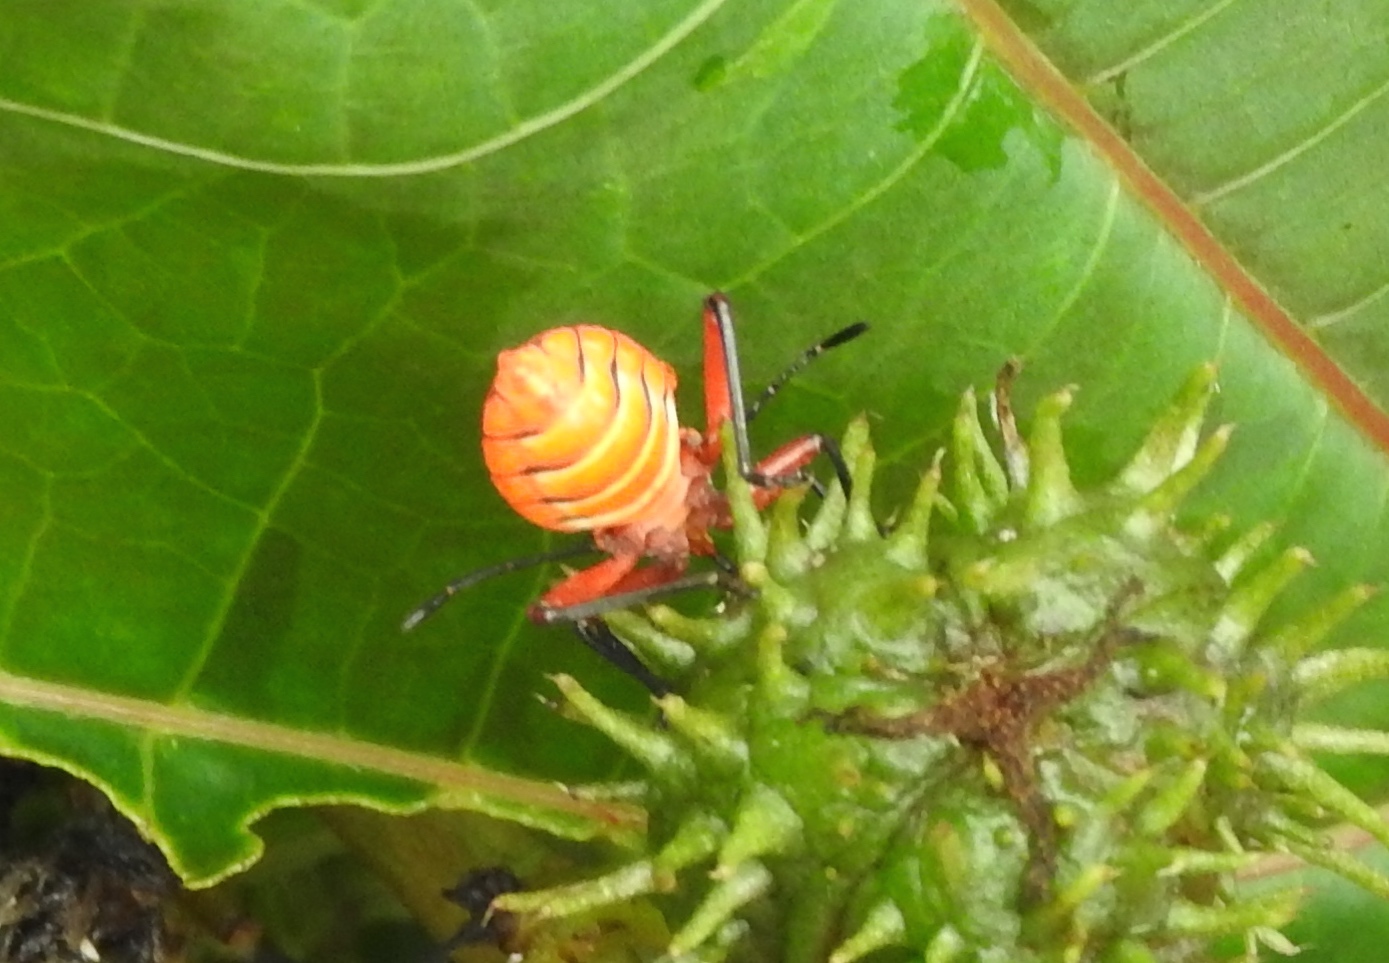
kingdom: Animalia
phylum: Arthropoda
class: Insecta
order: Hemiptera
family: Coreidae
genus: Sagotylus
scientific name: Sagotylus confluens
